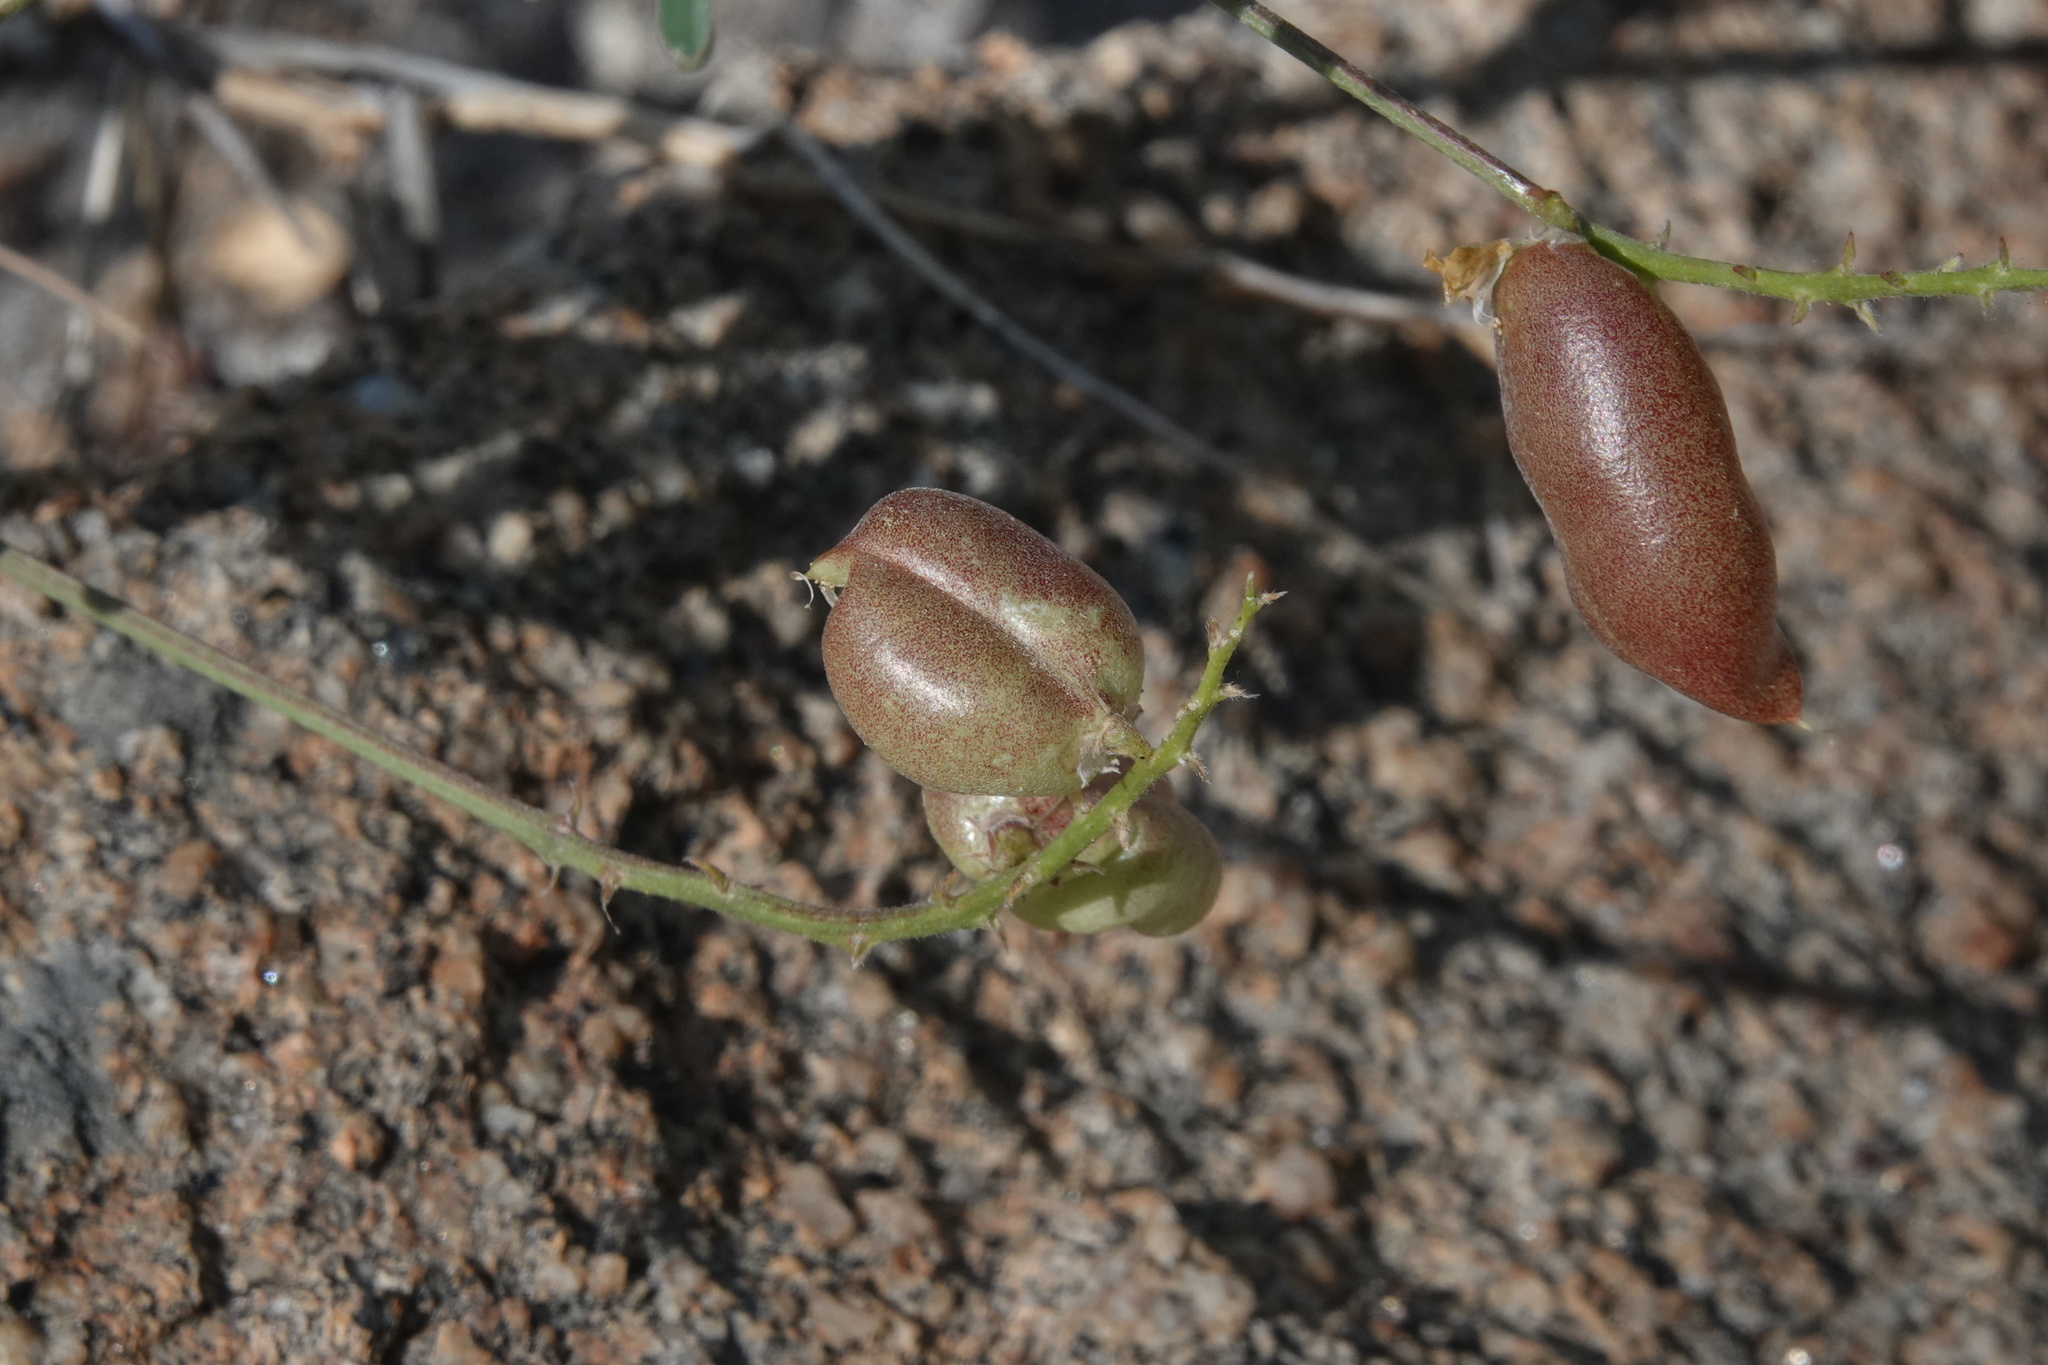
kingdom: Plantae
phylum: Tracheophyta
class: Magnoliopsida
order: Fabales
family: Fabaceae
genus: Astragalus
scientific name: Astragalus douglasii
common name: Jacumba milkvetch
